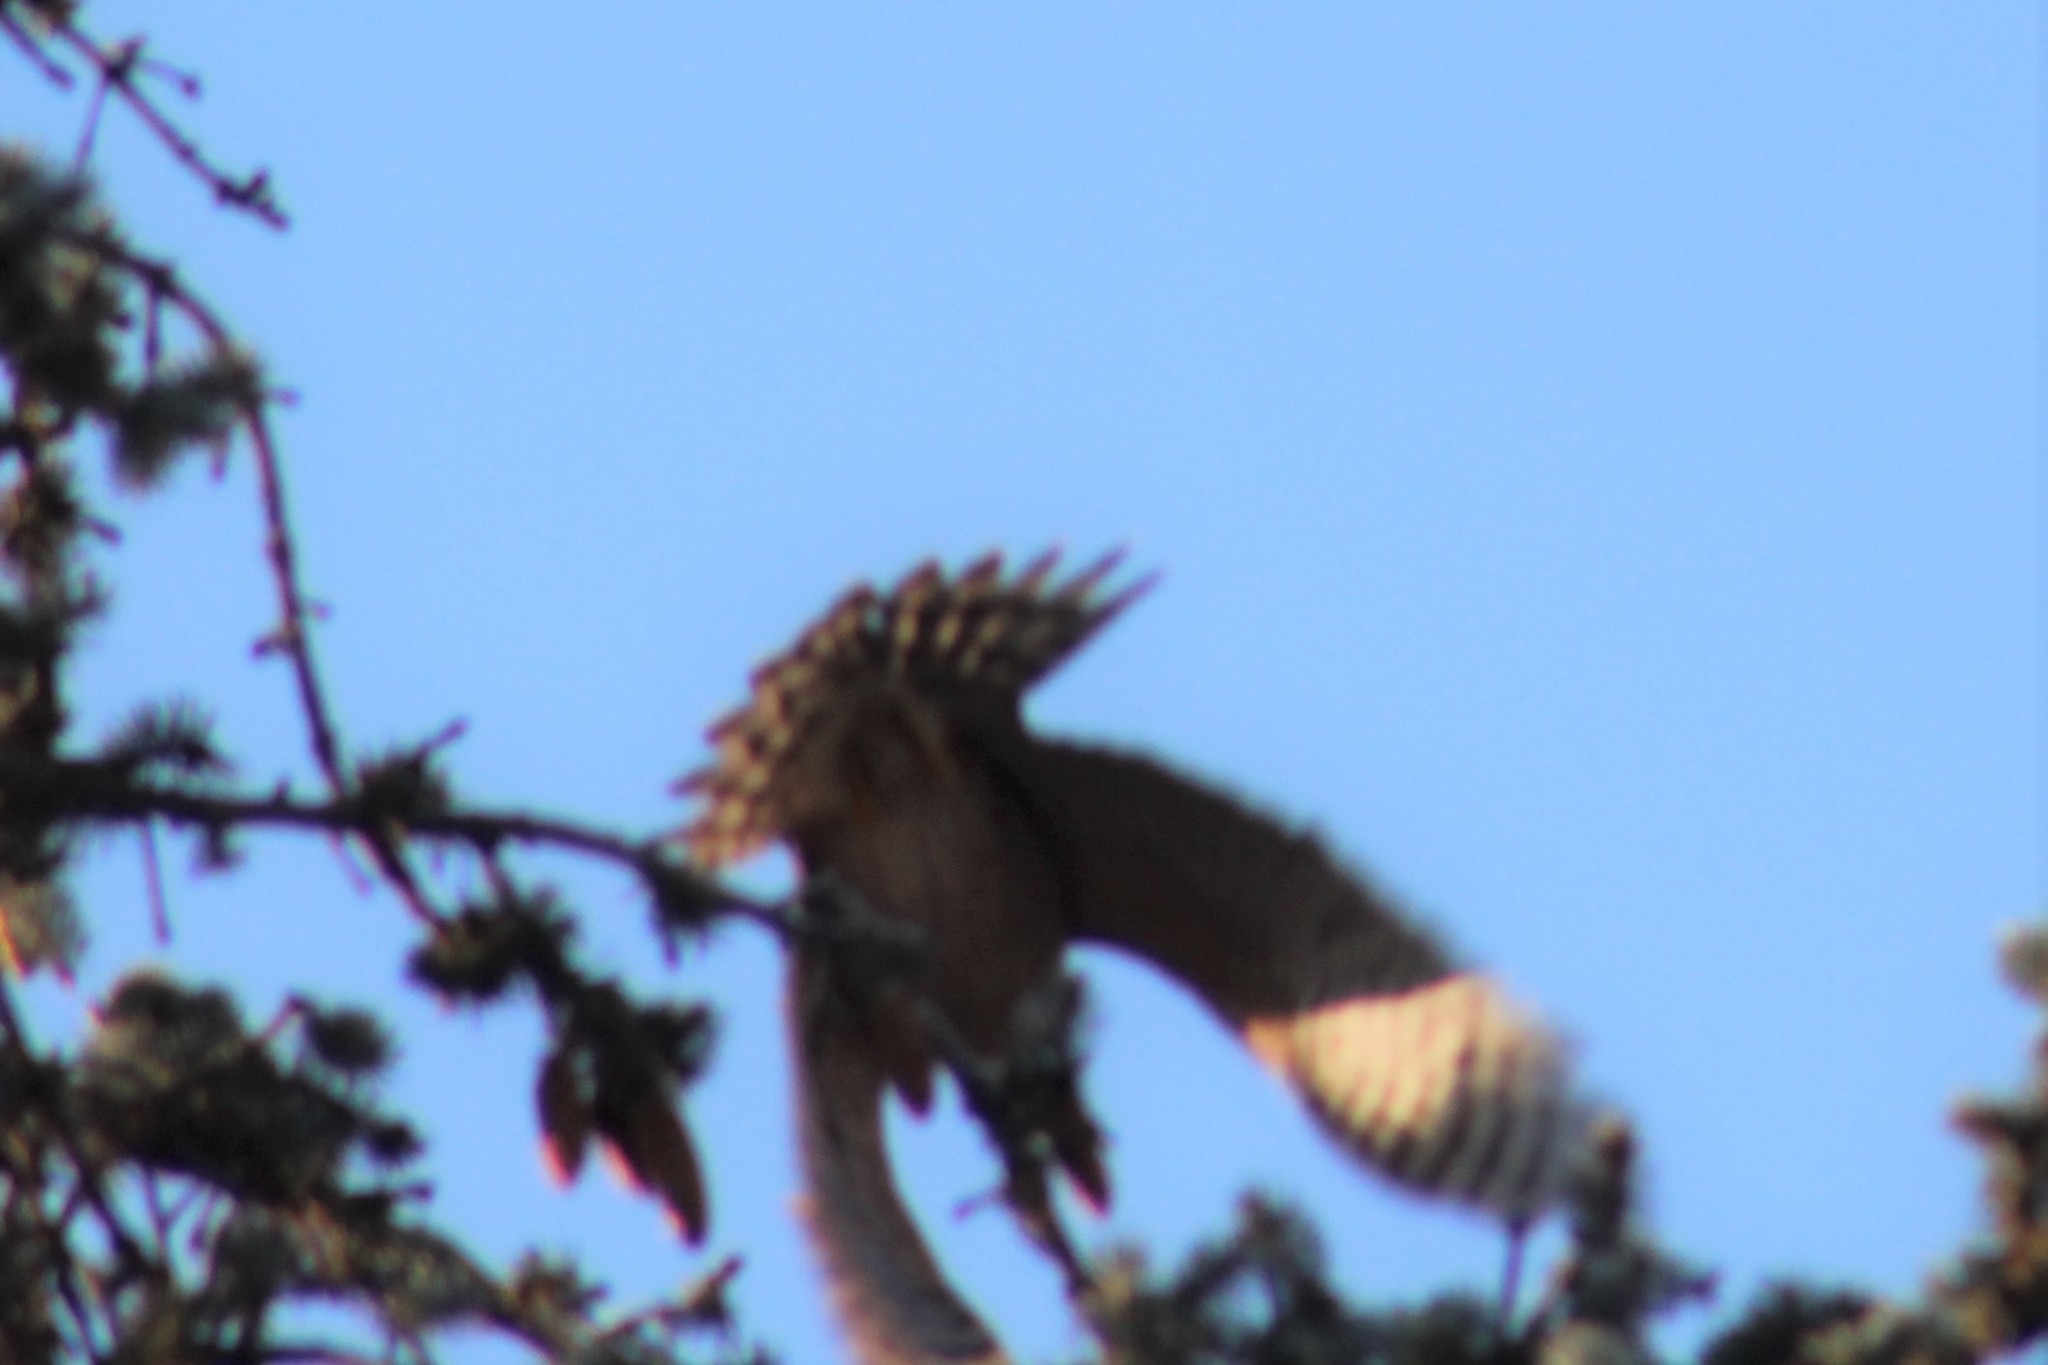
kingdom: Animalia
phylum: Chordata
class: Aves
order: Accipitriformes
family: Accipitridae
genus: Accipiter
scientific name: Accipiter cooperii
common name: Cooper's hawk
